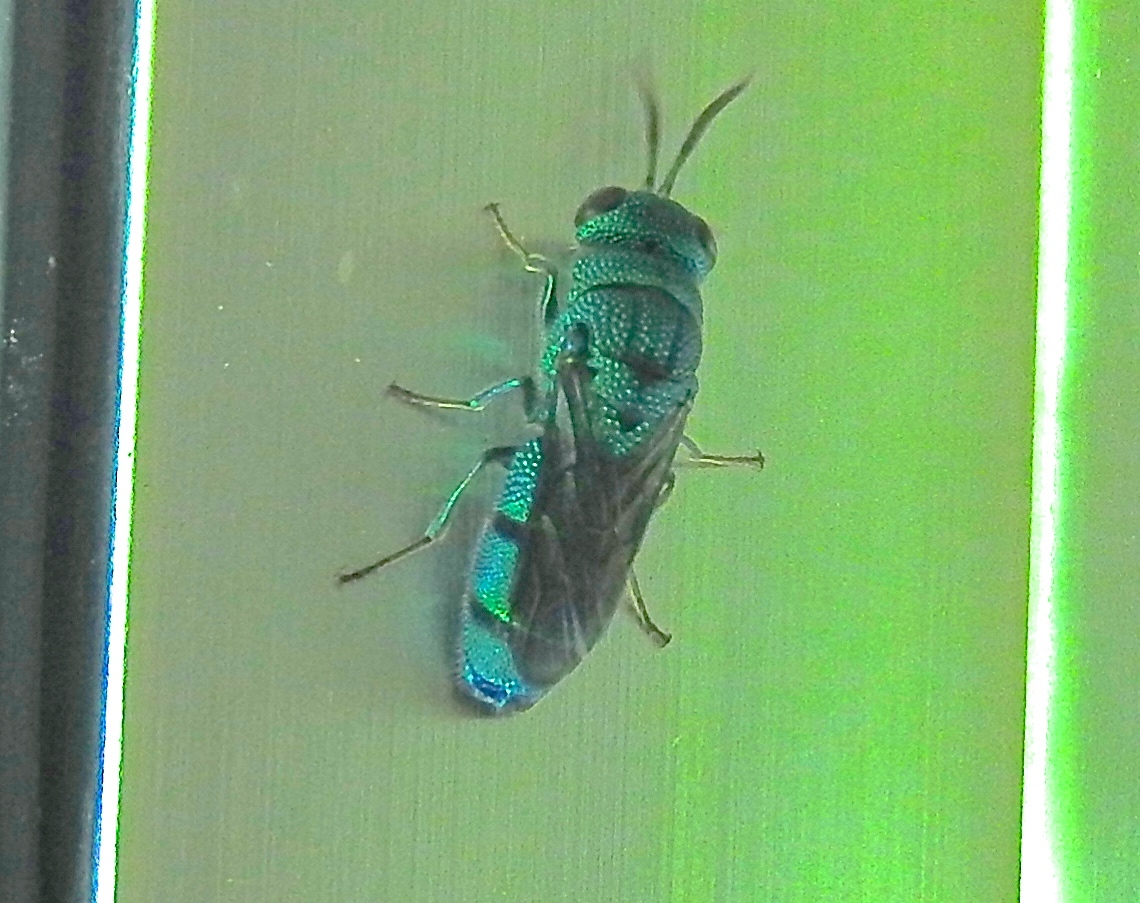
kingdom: Animalia
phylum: Arthropoda
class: Insecta
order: Hymenoptera
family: Chrysididae
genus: Caenochrysis
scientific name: Caenochrysis
